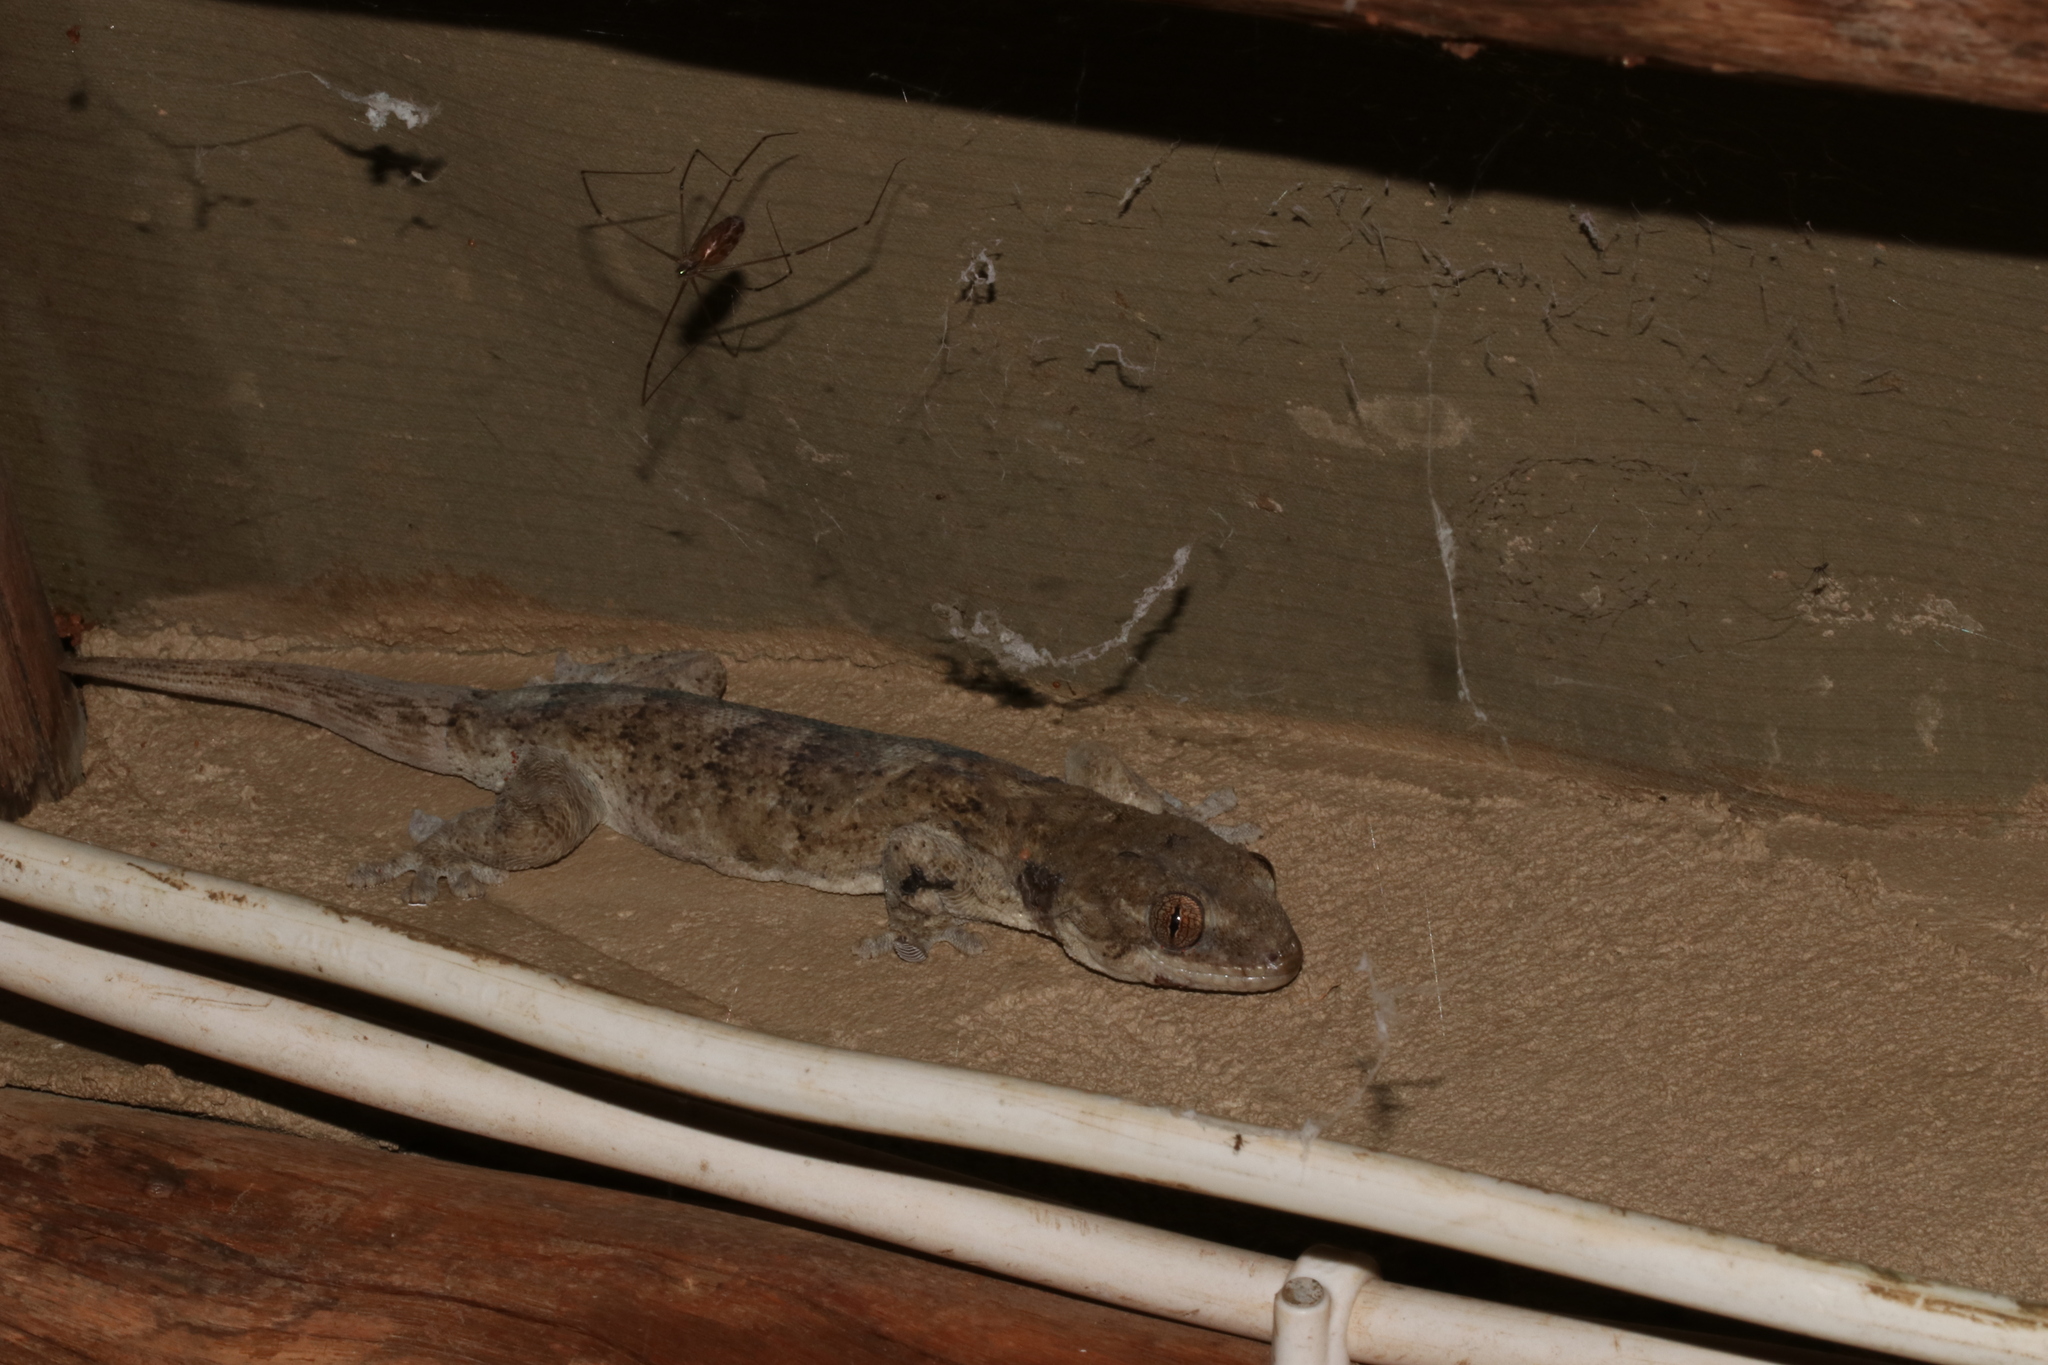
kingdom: Animalia
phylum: Chordata
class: Squamata
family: Gekkonidae
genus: Homopholis
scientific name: Homopholis walbergii
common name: Wahlberg’s velvet gecko
